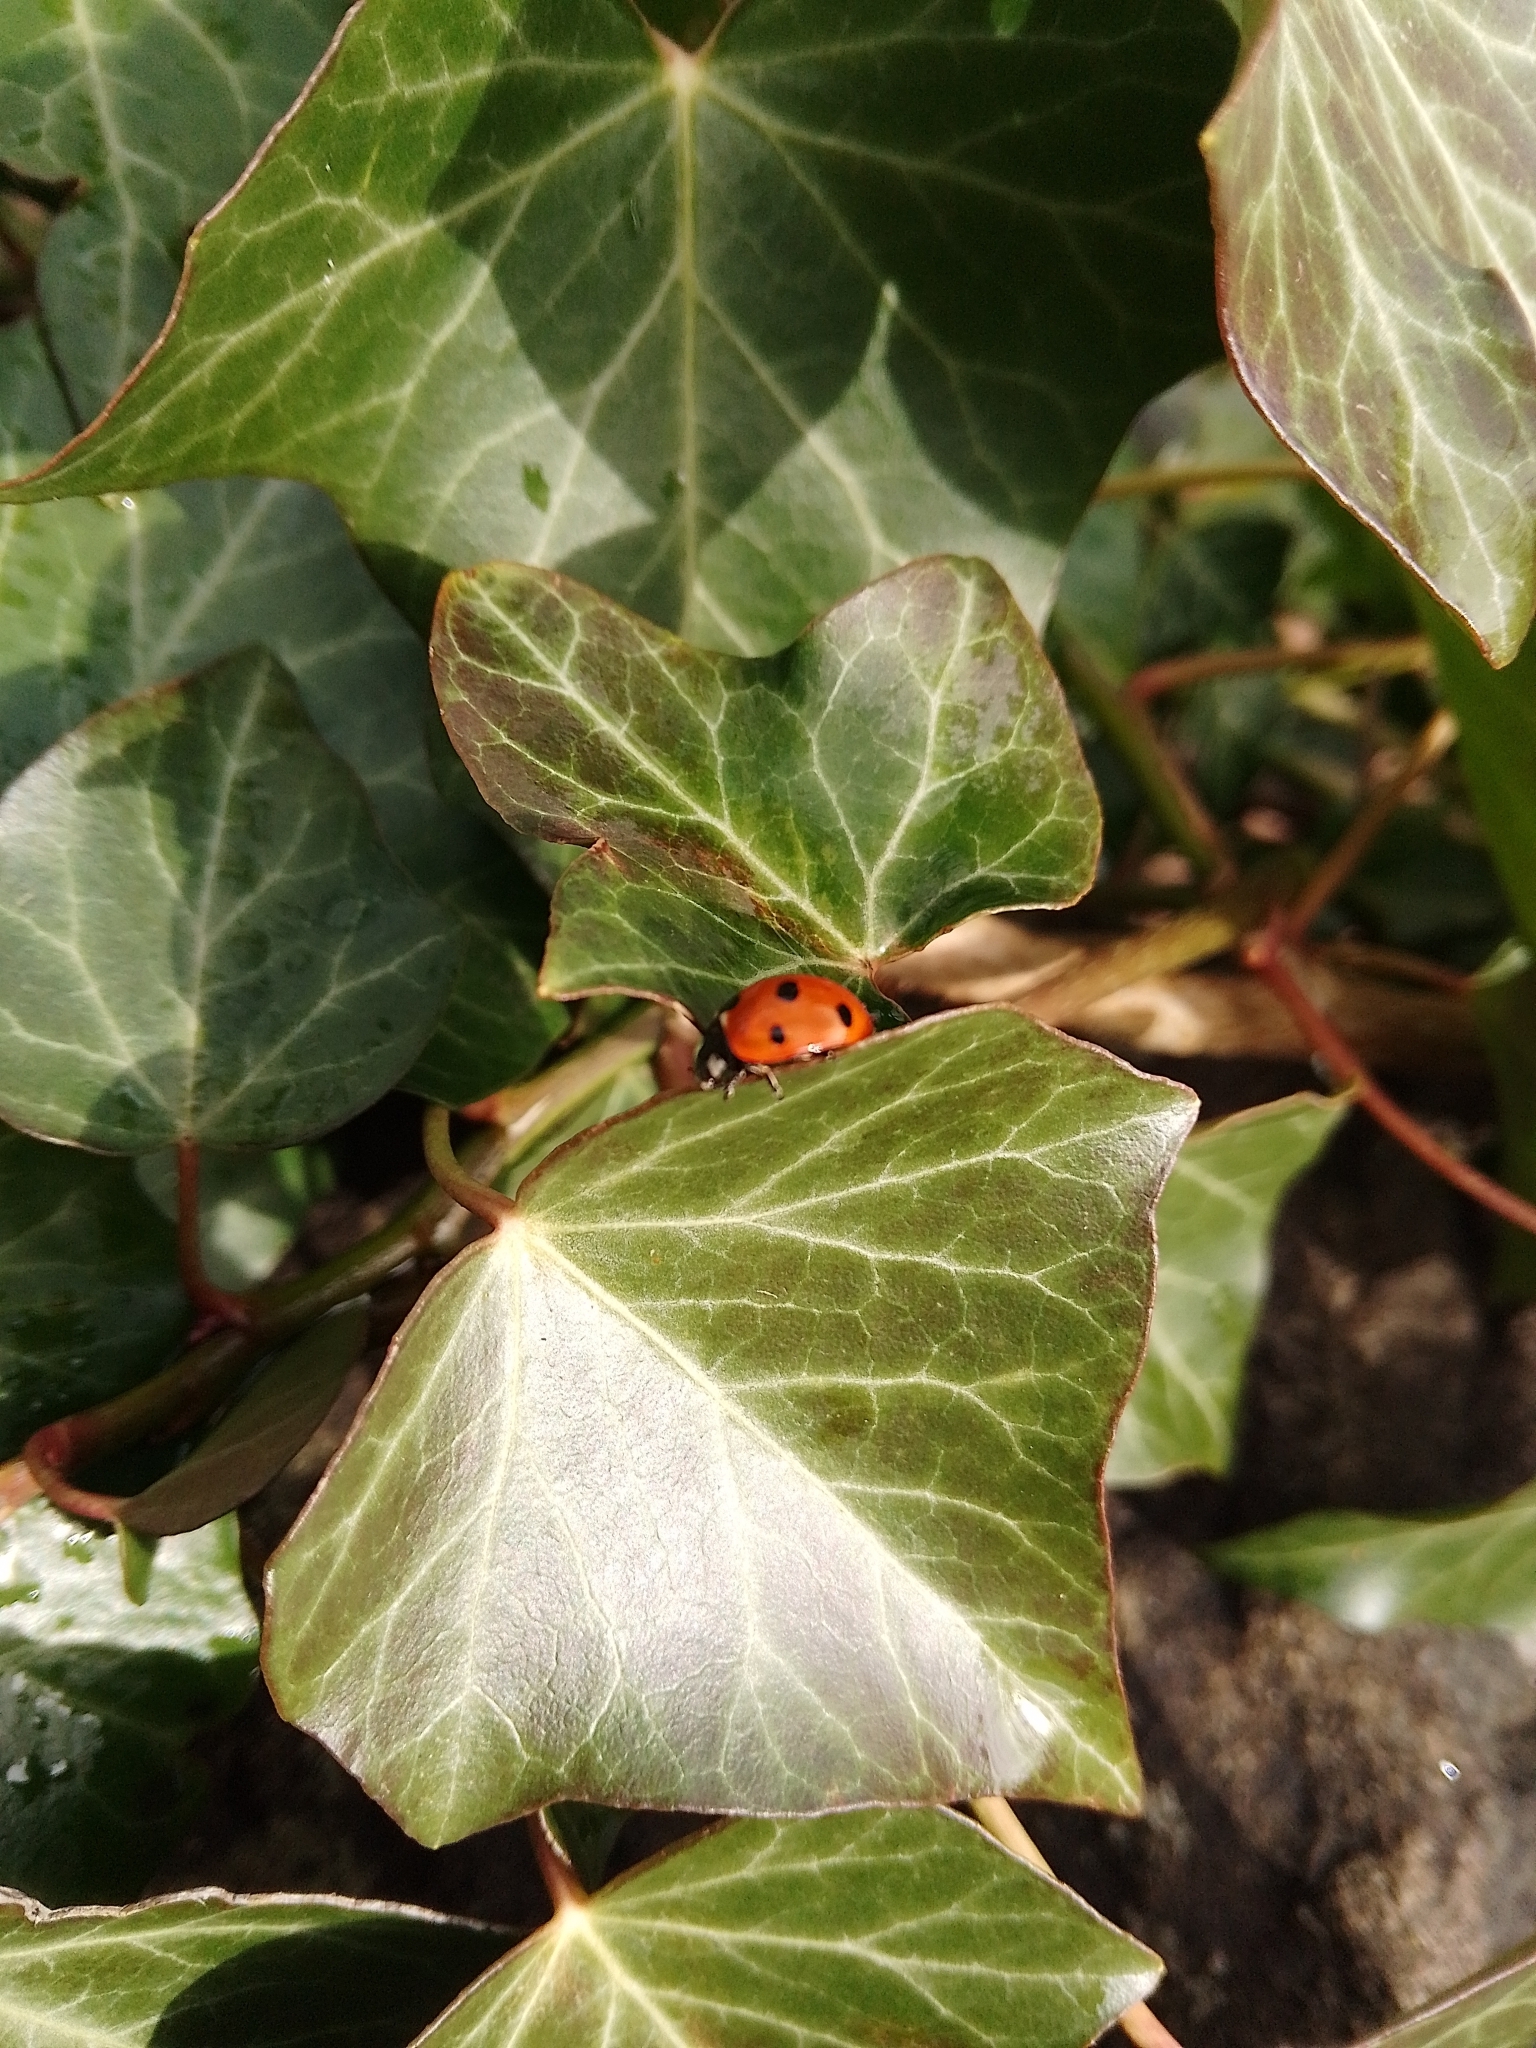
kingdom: Animalia
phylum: Arthropoda
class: Insecta
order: Coleoptera
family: Coccinellidae
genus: Coccinella
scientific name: Coccinella septempunctata
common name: Sevenspotted lady beetle
